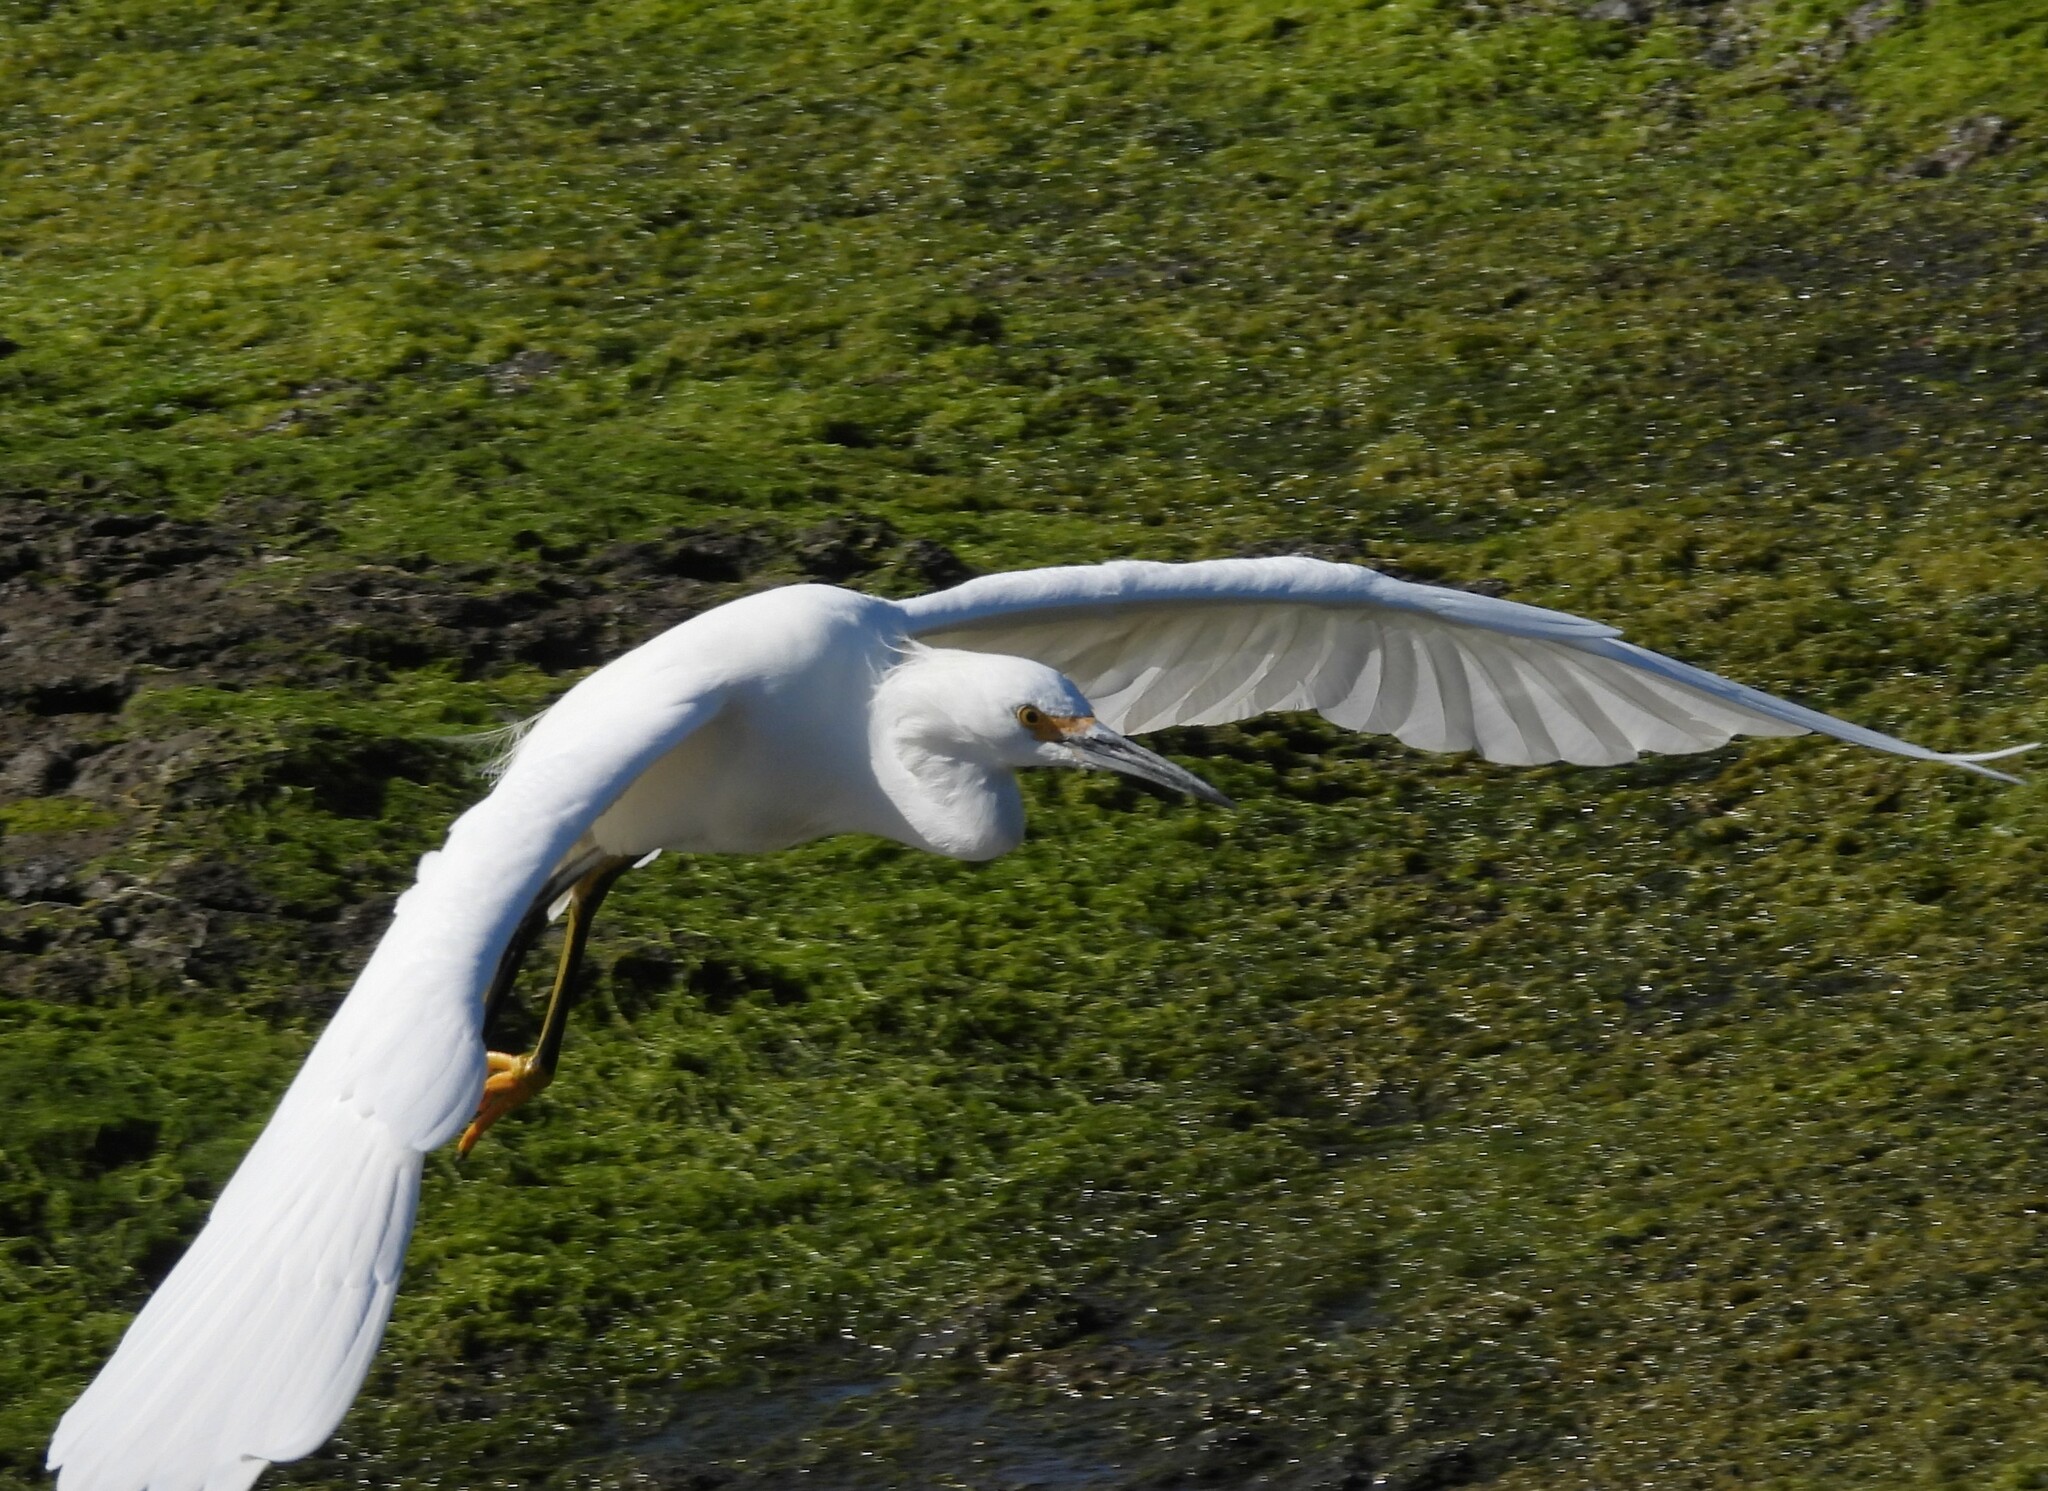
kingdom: Animalia
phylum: Chordata
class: Aves
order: Pelecaniformes
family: Ardeidae
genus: Egretta
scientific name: Egretta thula
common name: Snowy egret
